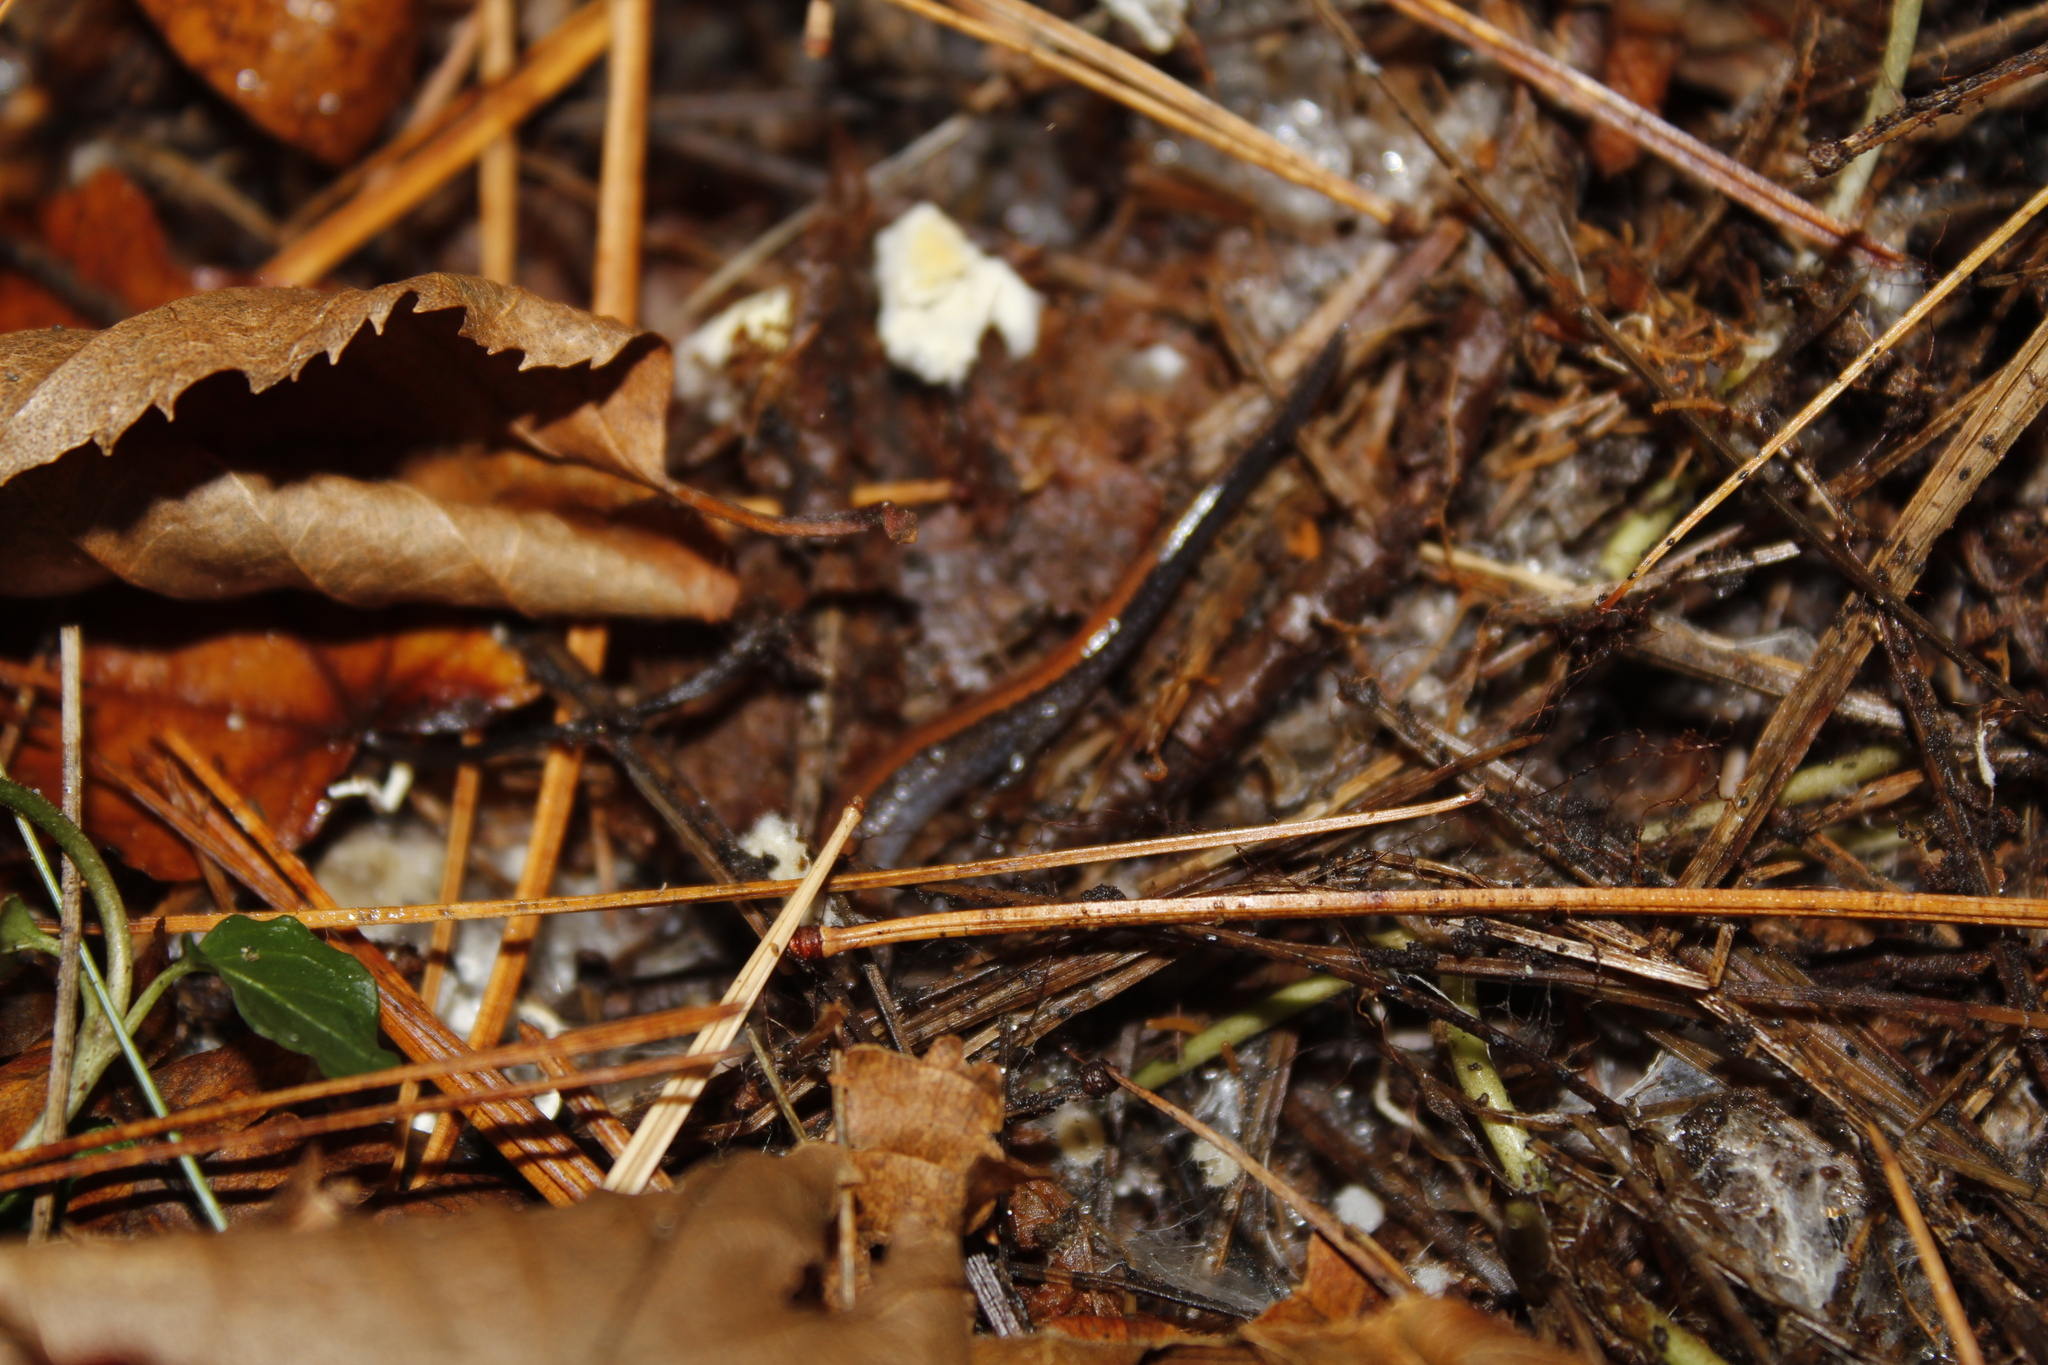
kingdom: Animalia
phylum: Chordata
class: Amphibia
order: Caudata
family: Plethodontidae
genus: Plethodon
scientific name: Plethodon cinereus
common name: Redback salamander
